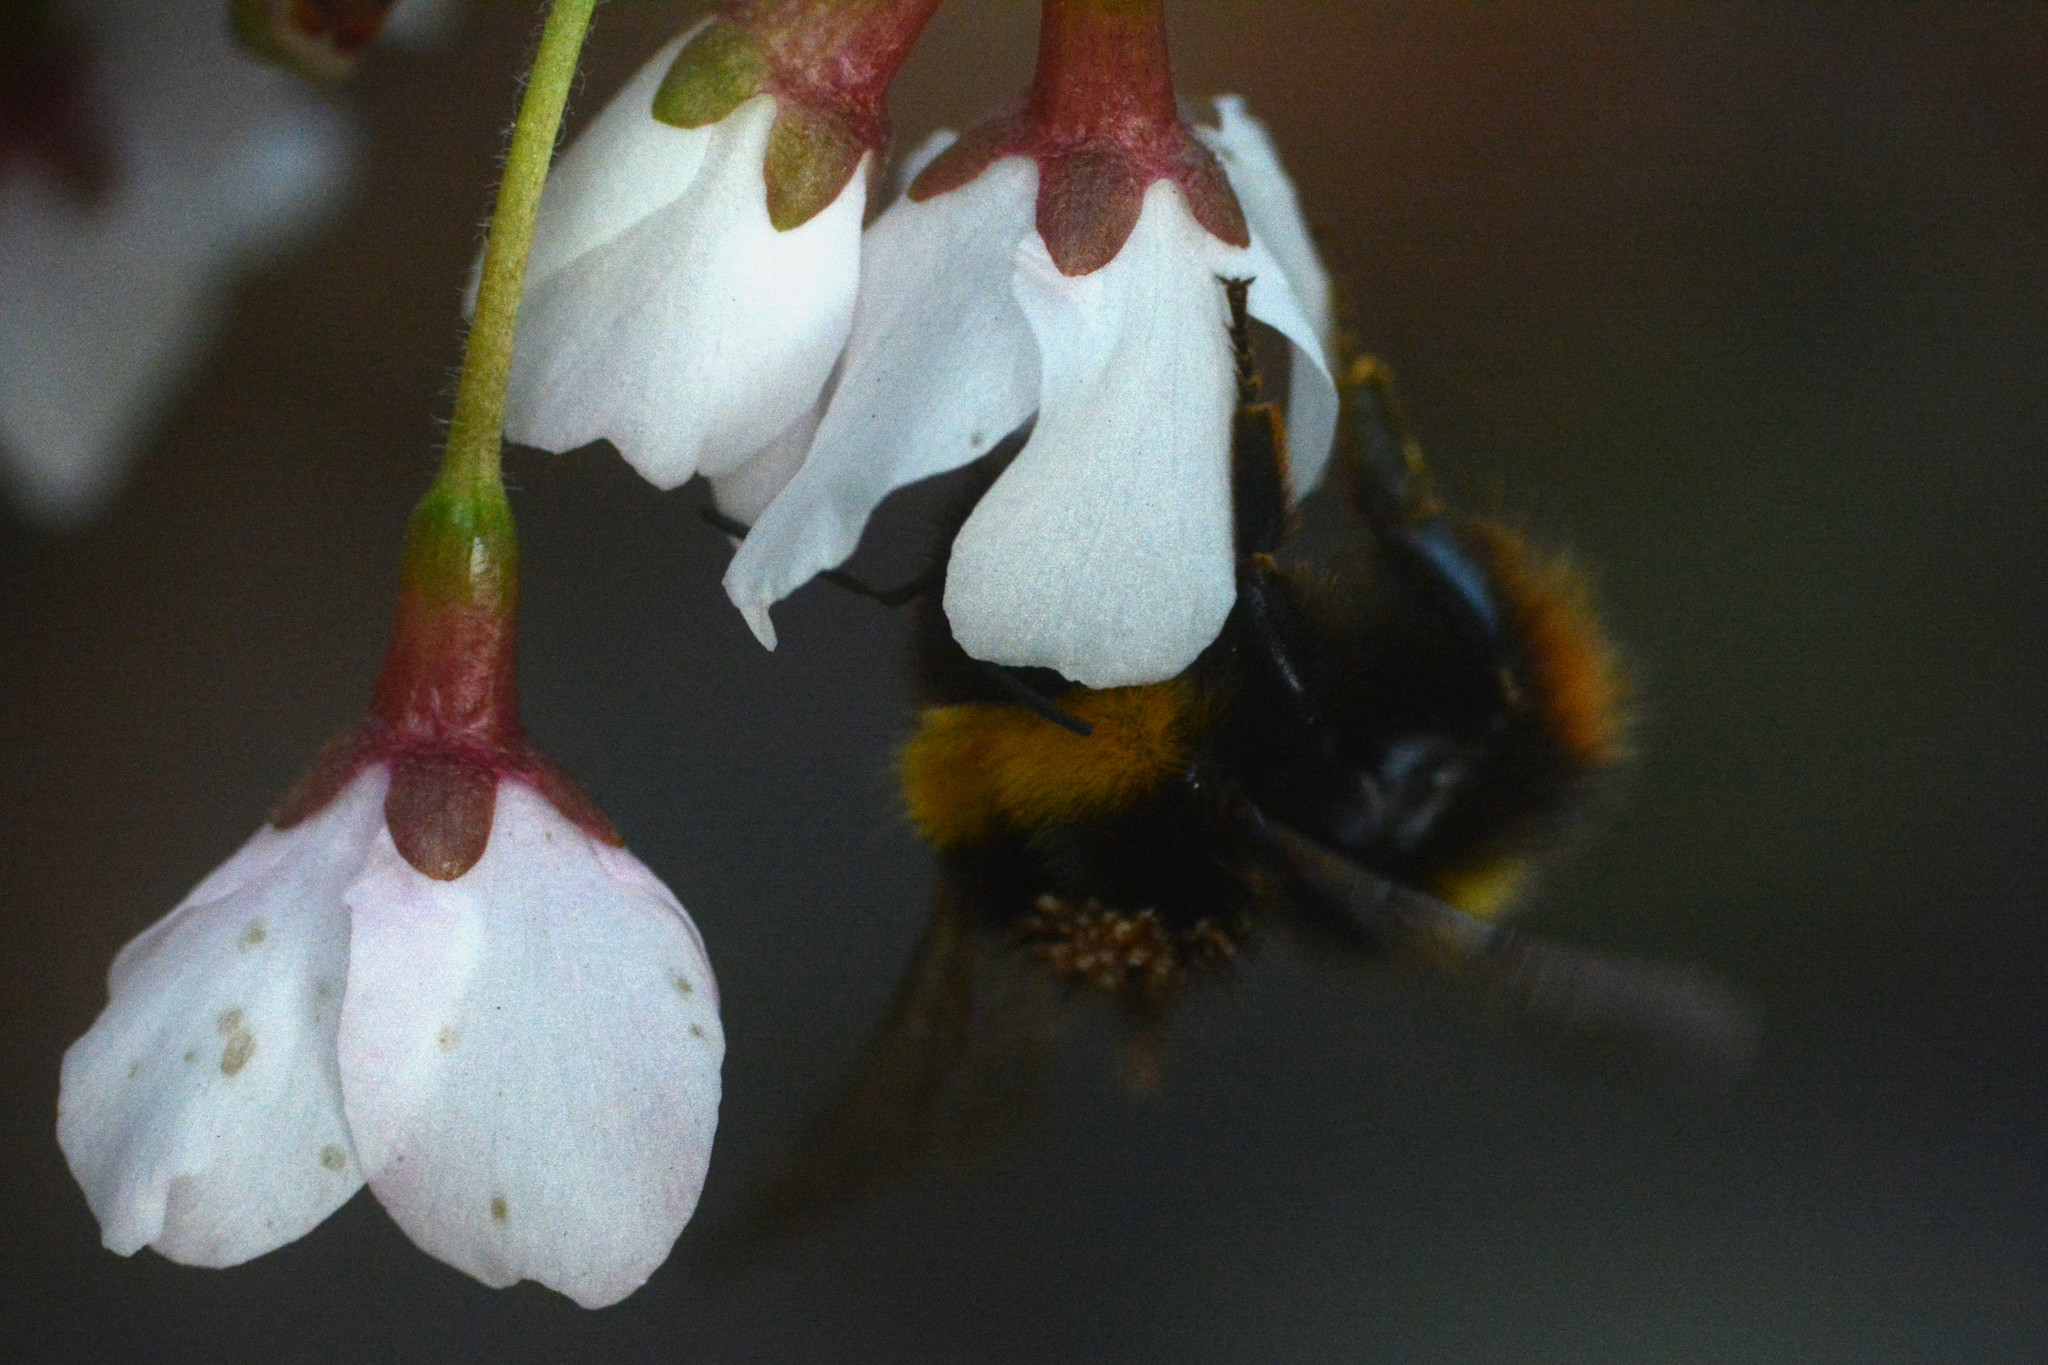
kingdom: Animalia
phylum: Arthropoda
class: Insecta
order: Hymenoptera
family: Apidae
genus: Bombus
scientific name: Bombus pratorum
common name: Early humble-bee
